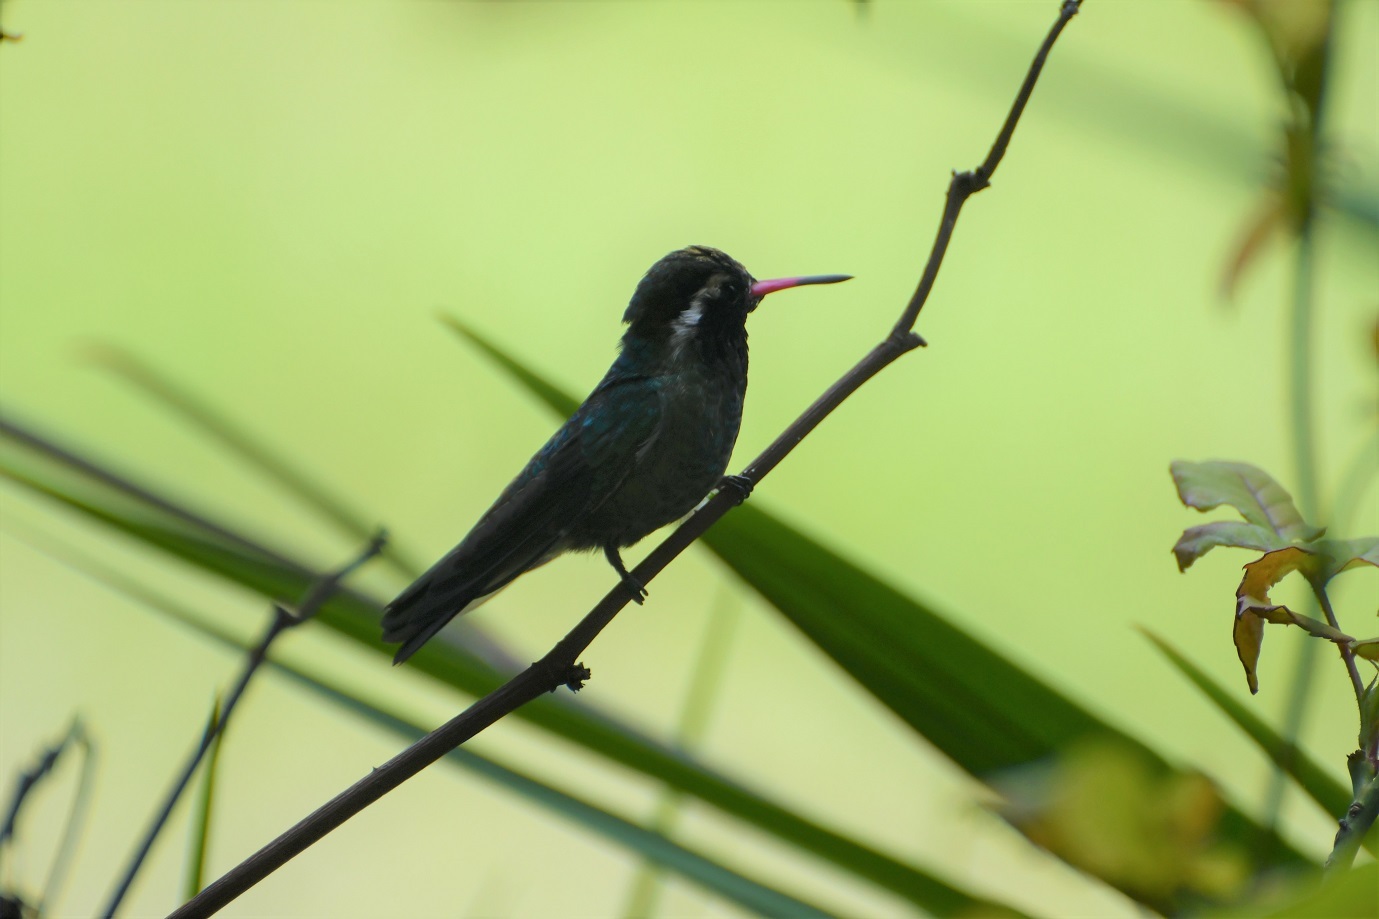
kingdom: Animalia
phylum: Chordata
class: Aves
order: Apodiformes
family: Trochilidae
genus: Basilinna
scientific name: Basilinna leucotis
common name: White-eared hummingbird
